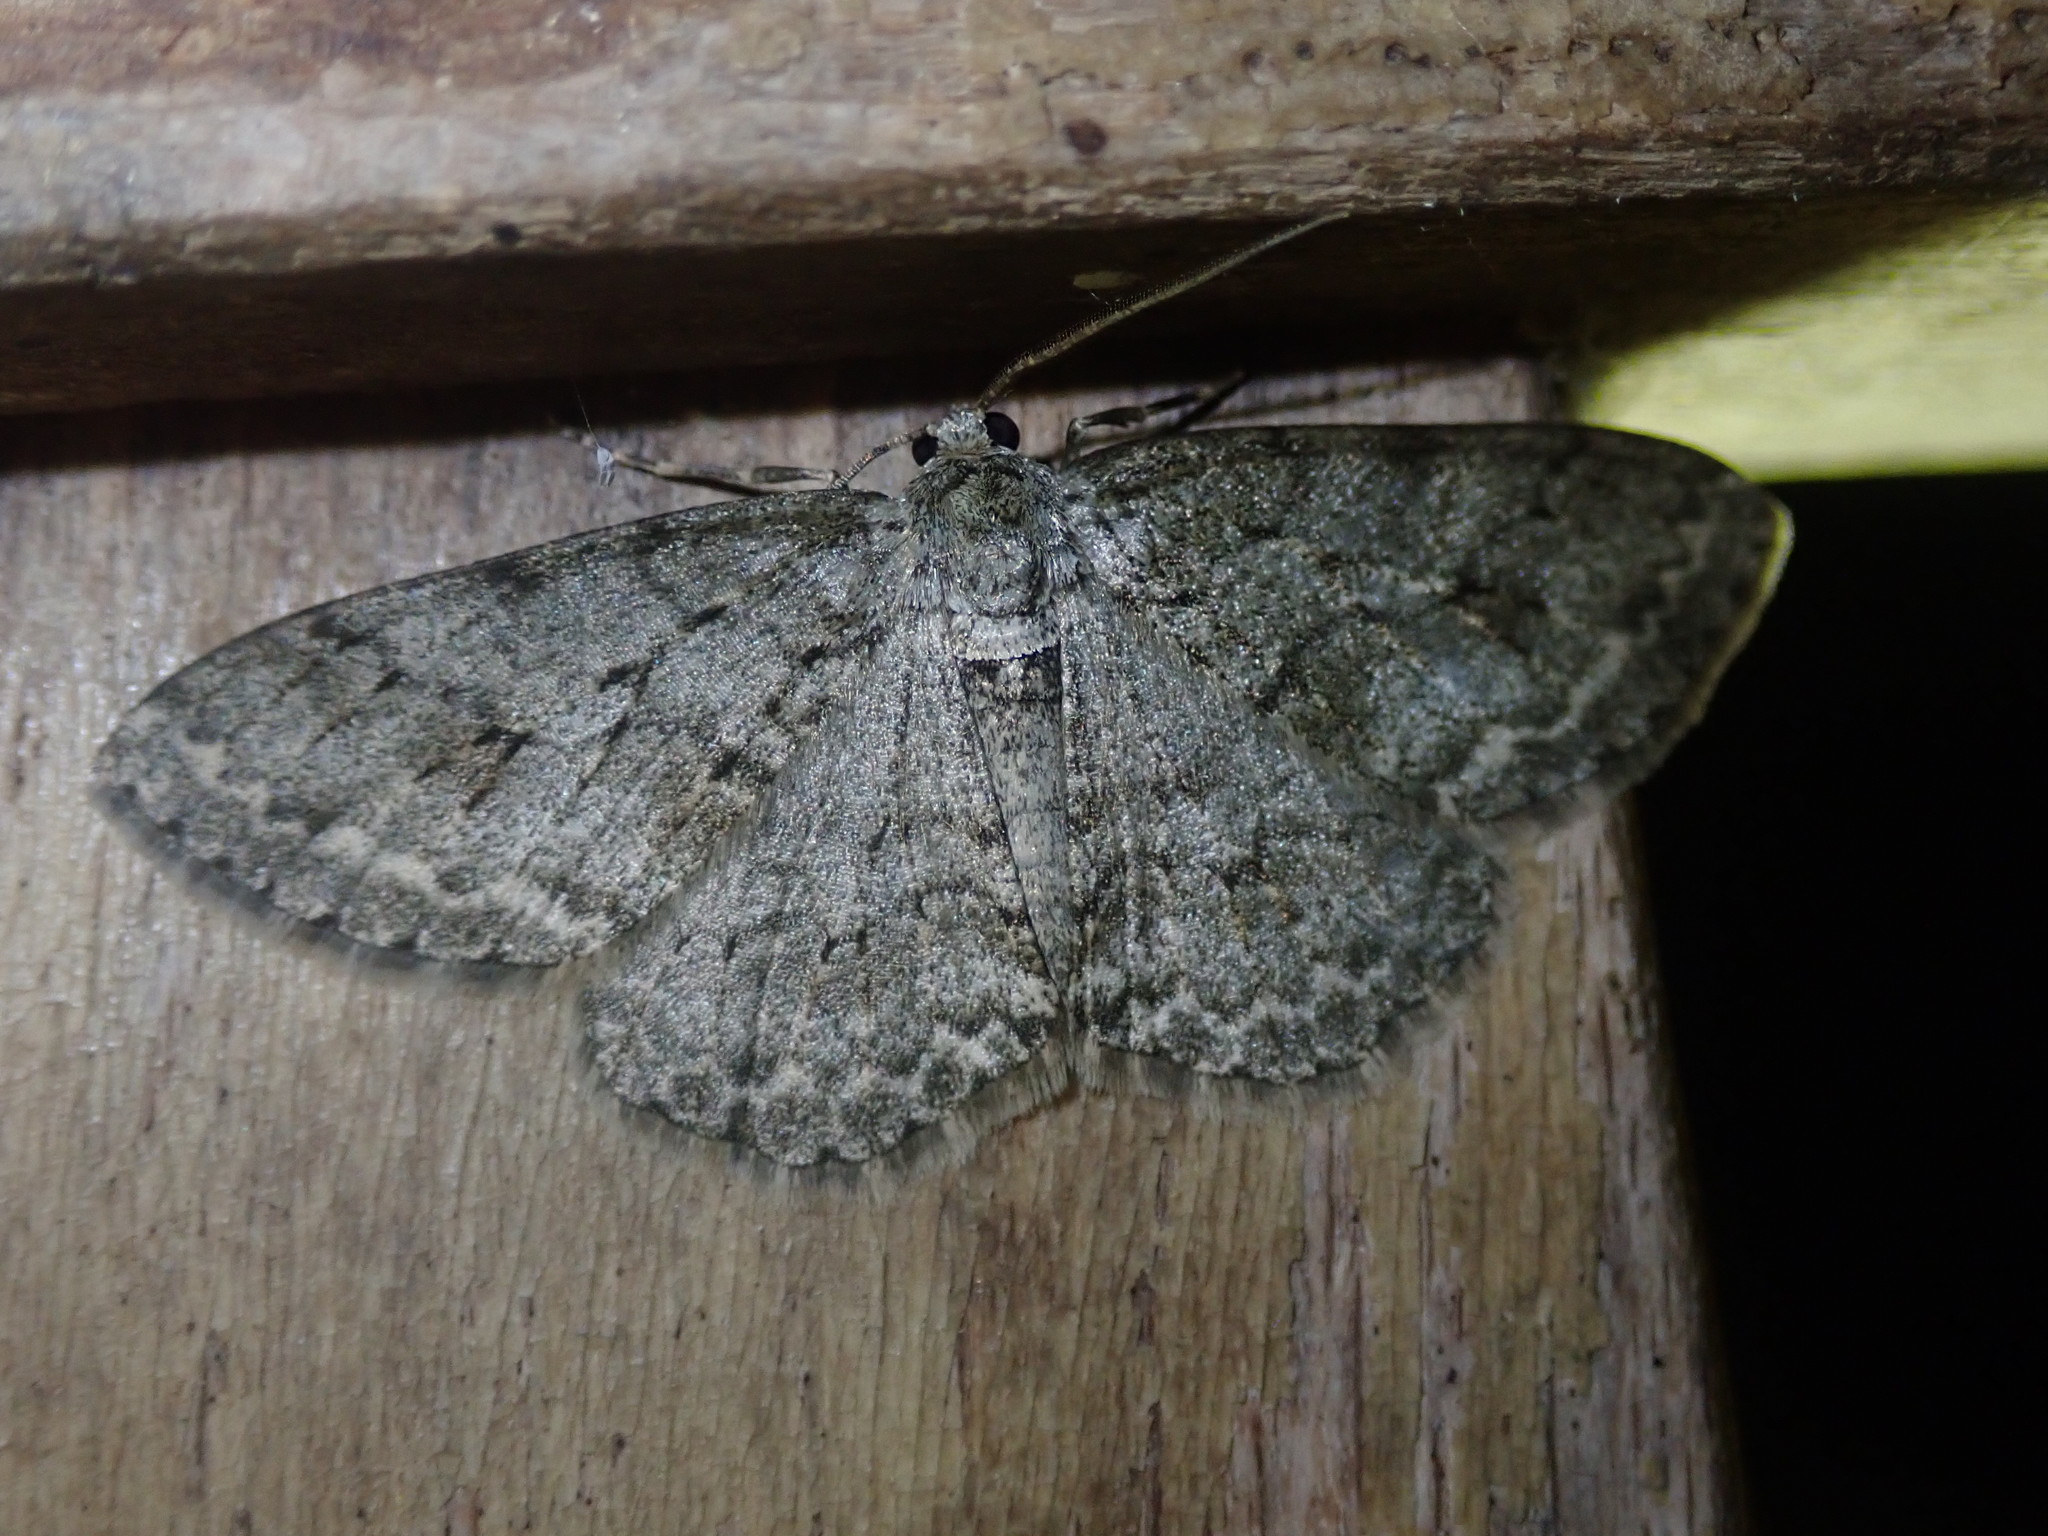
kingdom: Animalia
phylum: Arthropoda
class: Insecta
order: Lepidoptera
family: Geometridae
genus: Ectropis
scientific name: Ectropis crepuscularia
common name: Engrailed
